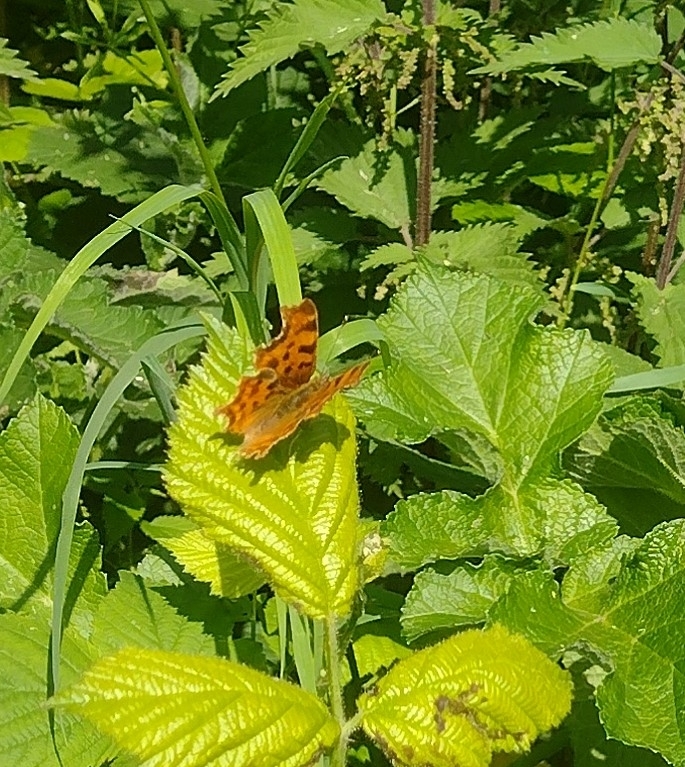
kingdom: Animalia
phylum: Arthropoda
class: Insecta
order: Lepidoptera
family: Nymphalidae
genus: Polygonia
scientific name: Polygonia c-album
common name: Comma
